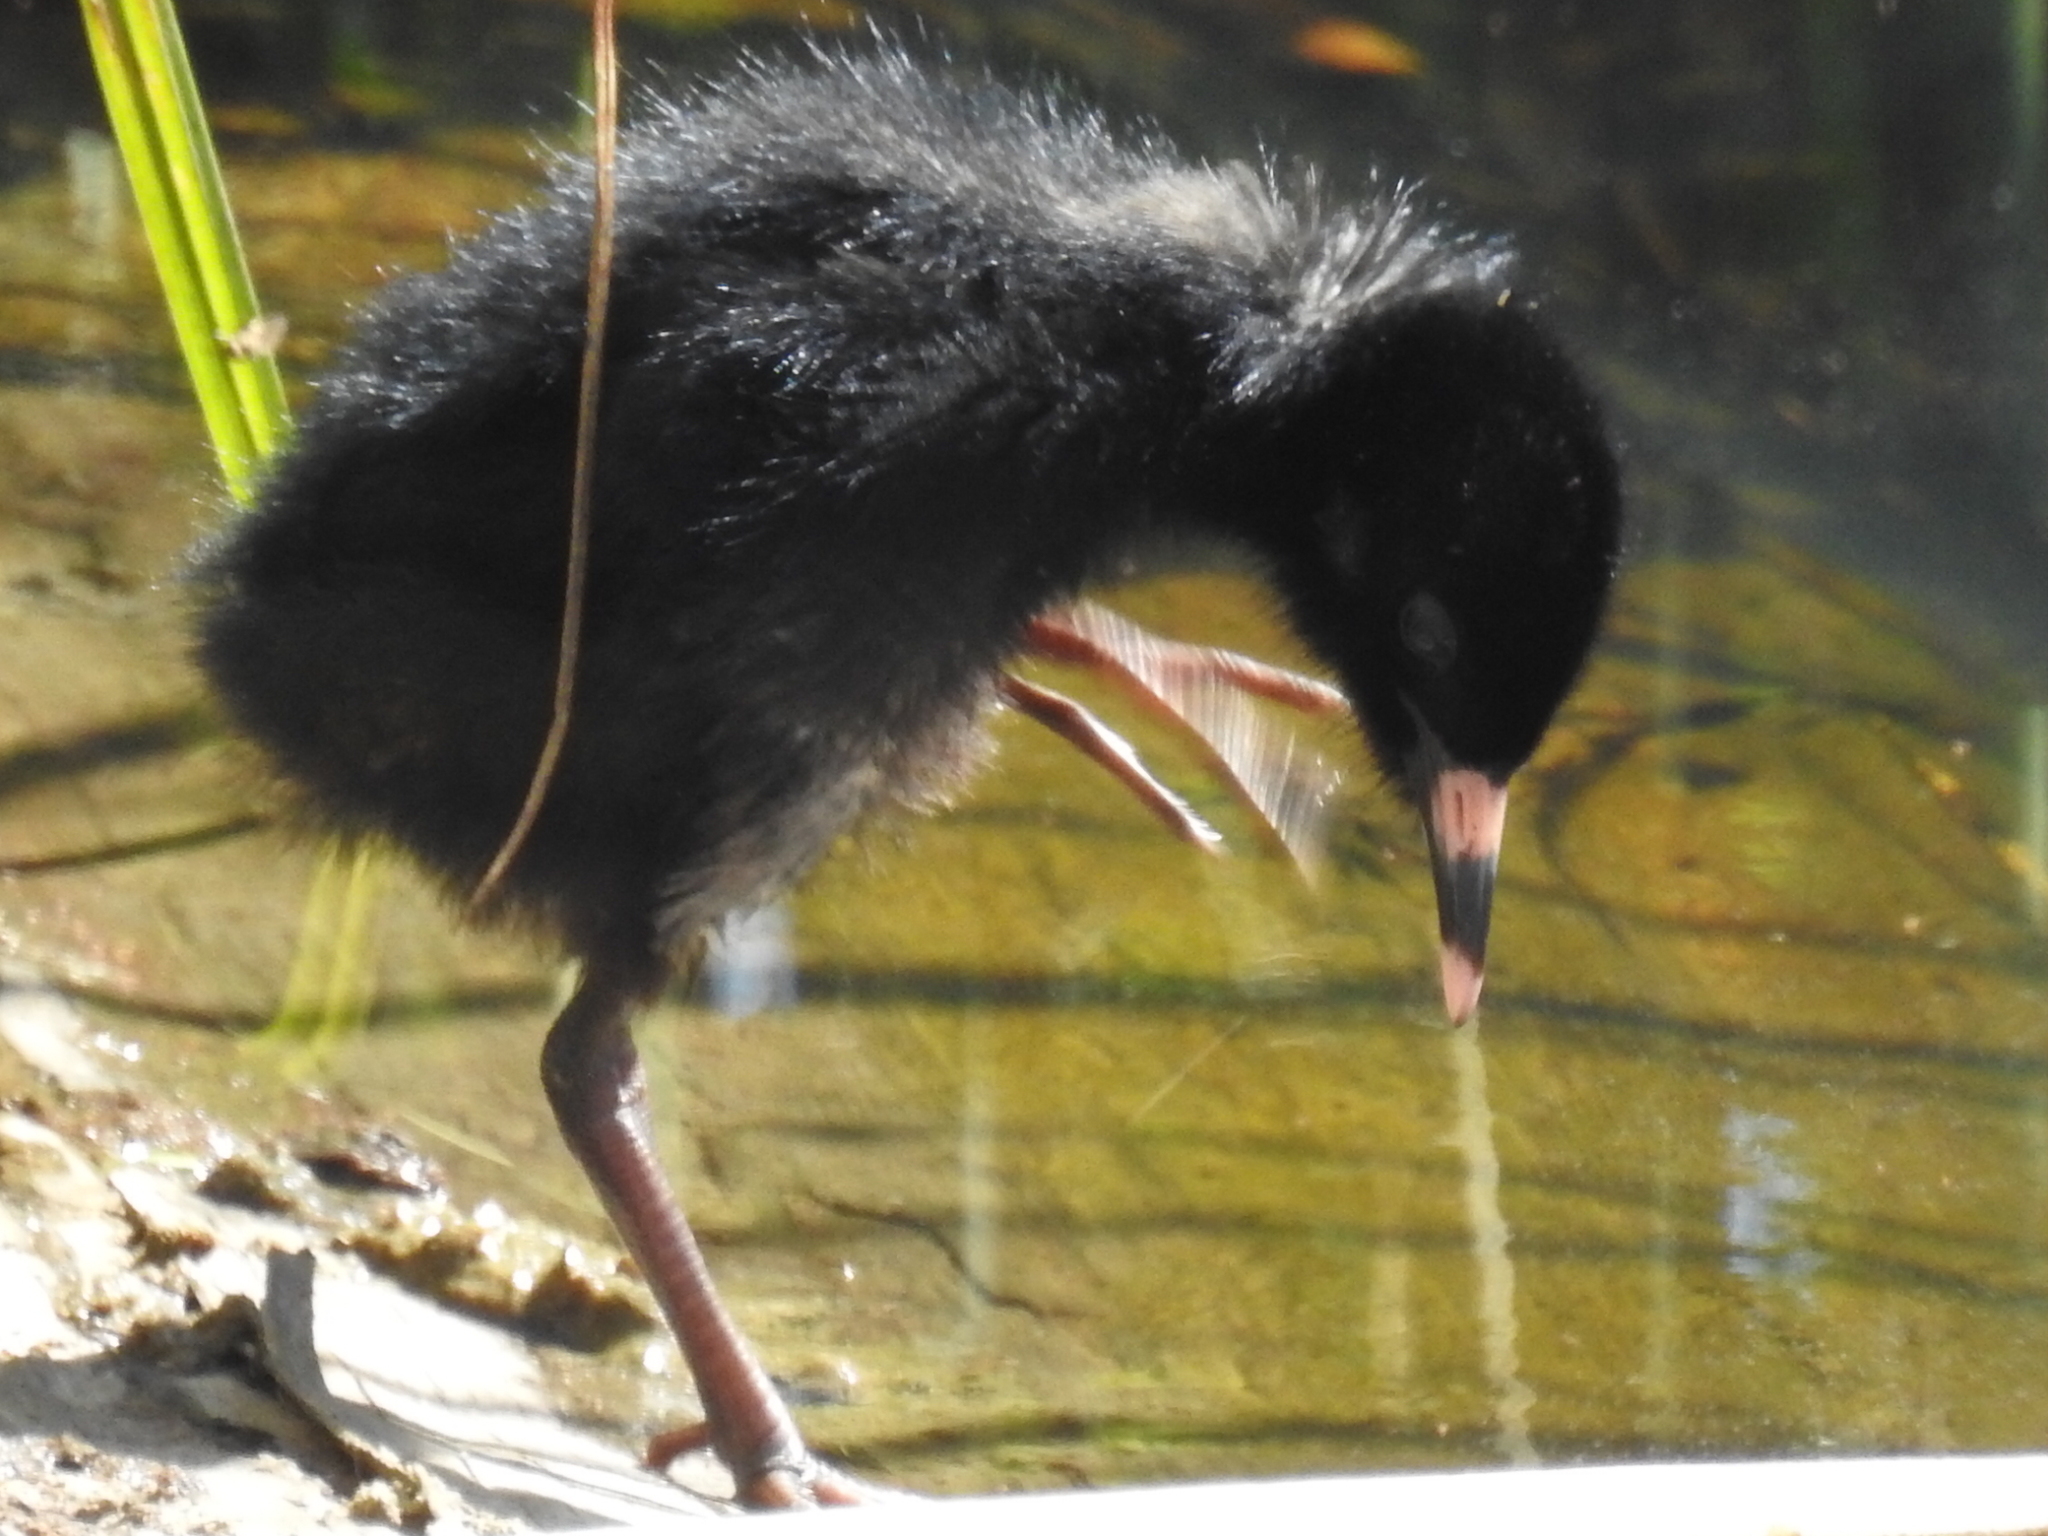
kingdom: Animalia
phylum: Chordata
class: Aves
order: Gruiformes
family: Rallidae
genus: Rallus
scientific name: Rallus limicola
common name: Virginia rail
